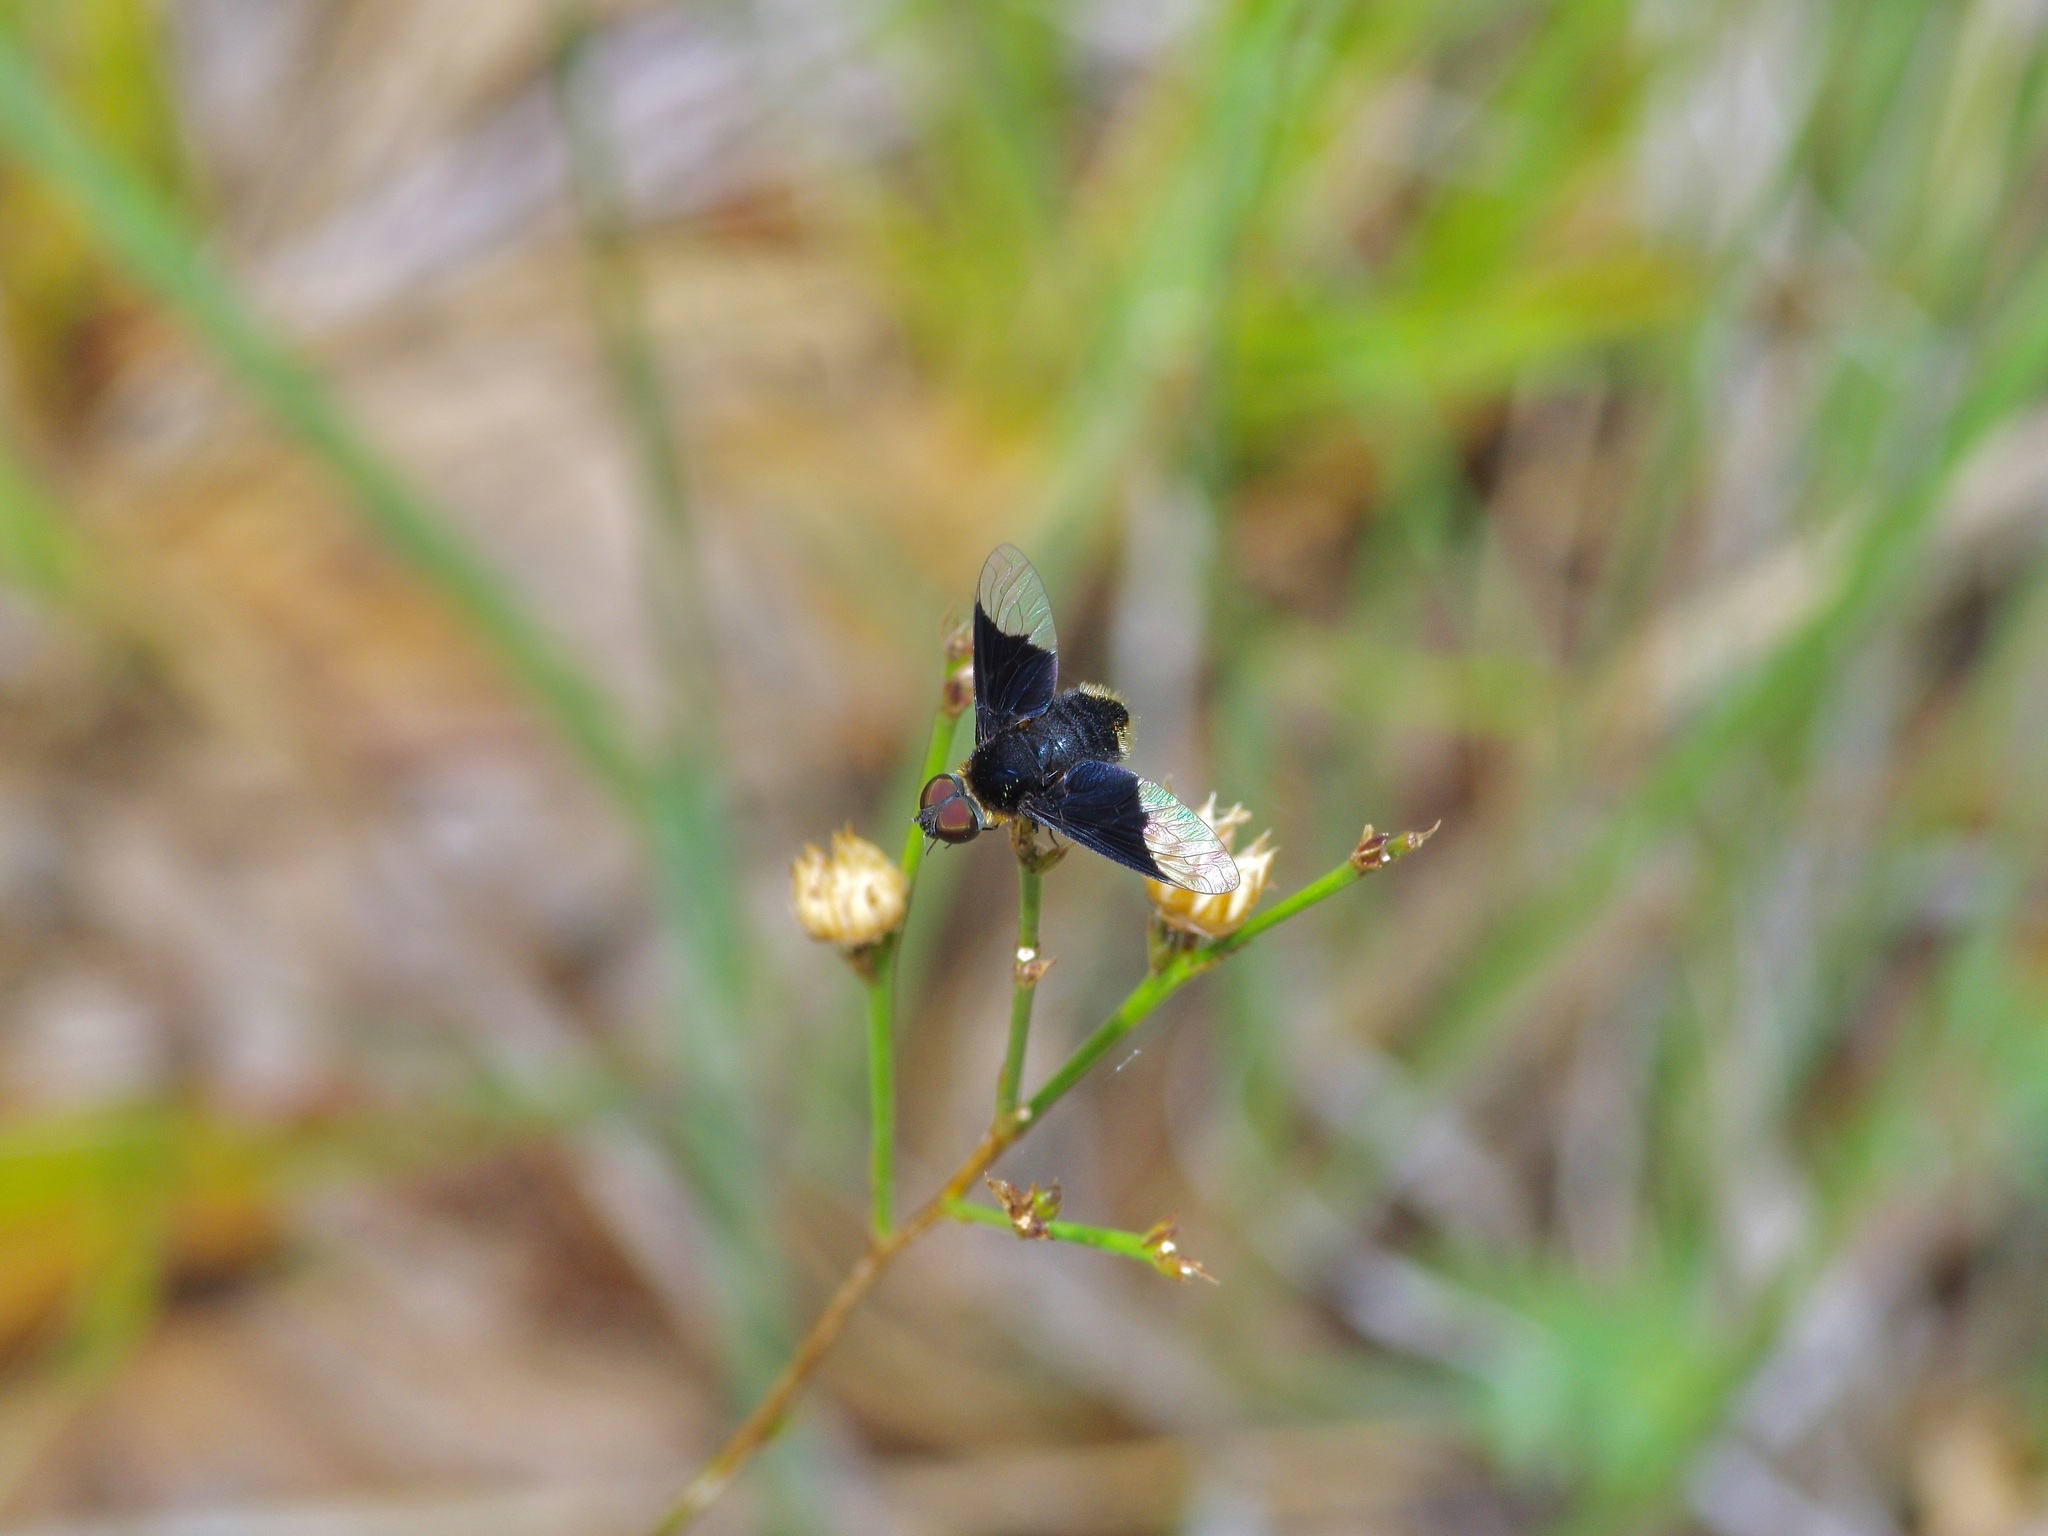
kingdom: Animalia
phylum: Arthropoda
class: Insecta
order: Diptera
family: Bombyliidae
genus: Ins
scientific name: Ins celeris
